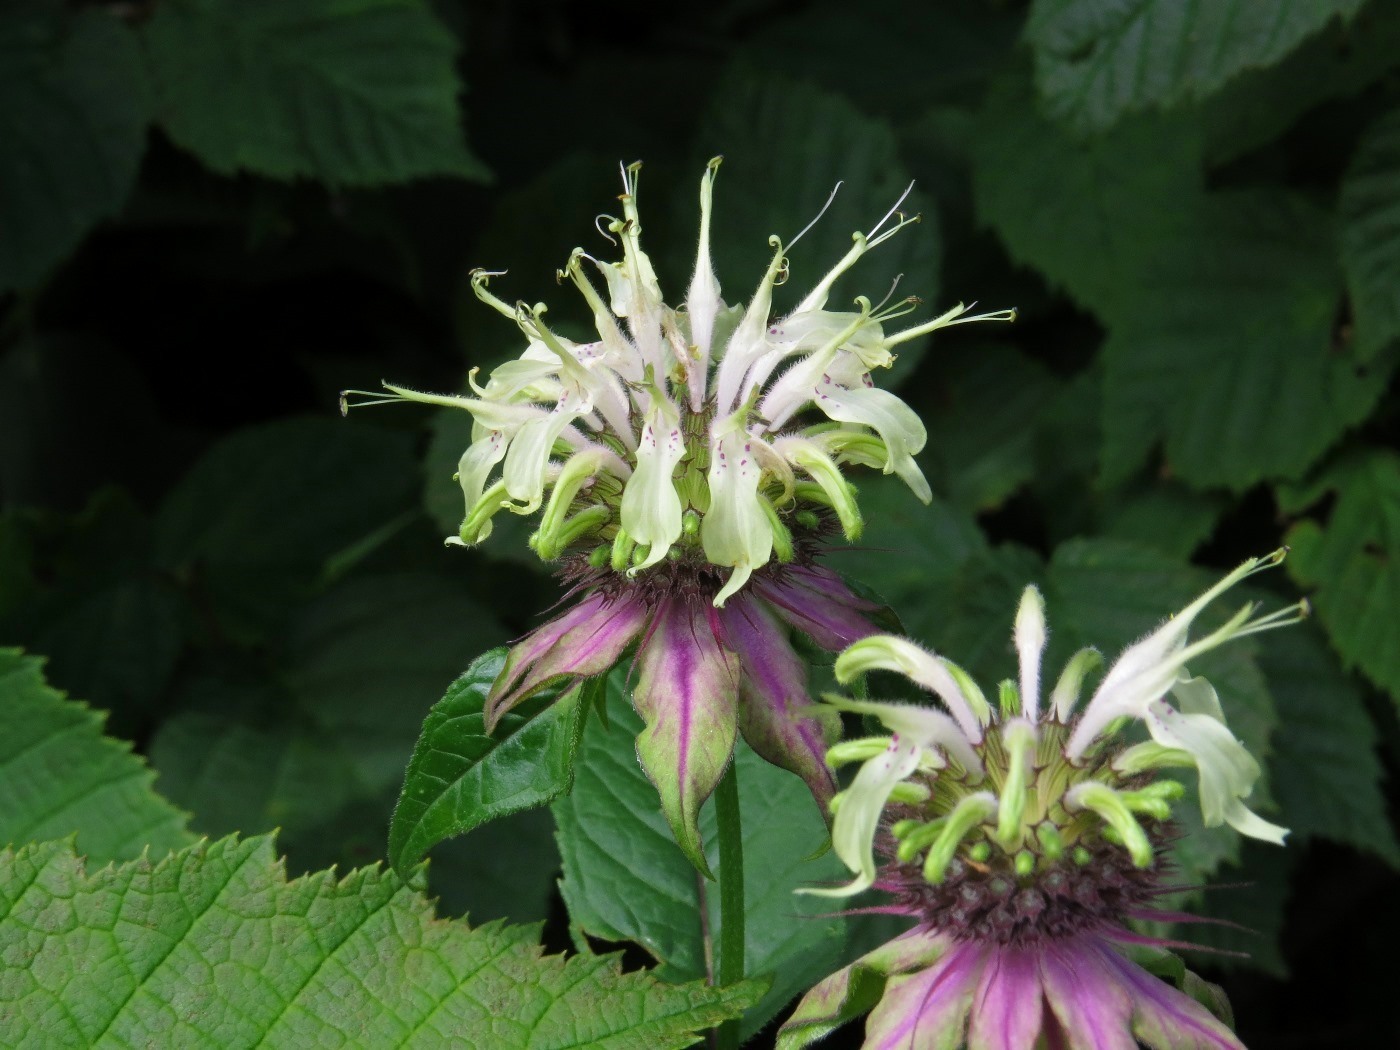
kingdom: Plantae
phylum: Tracheophyta
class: Magnoliopsida
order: Lamiales
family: Lamiaceae
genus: Monarda
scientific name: Monarda clinopodia
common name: Basil beebalm
